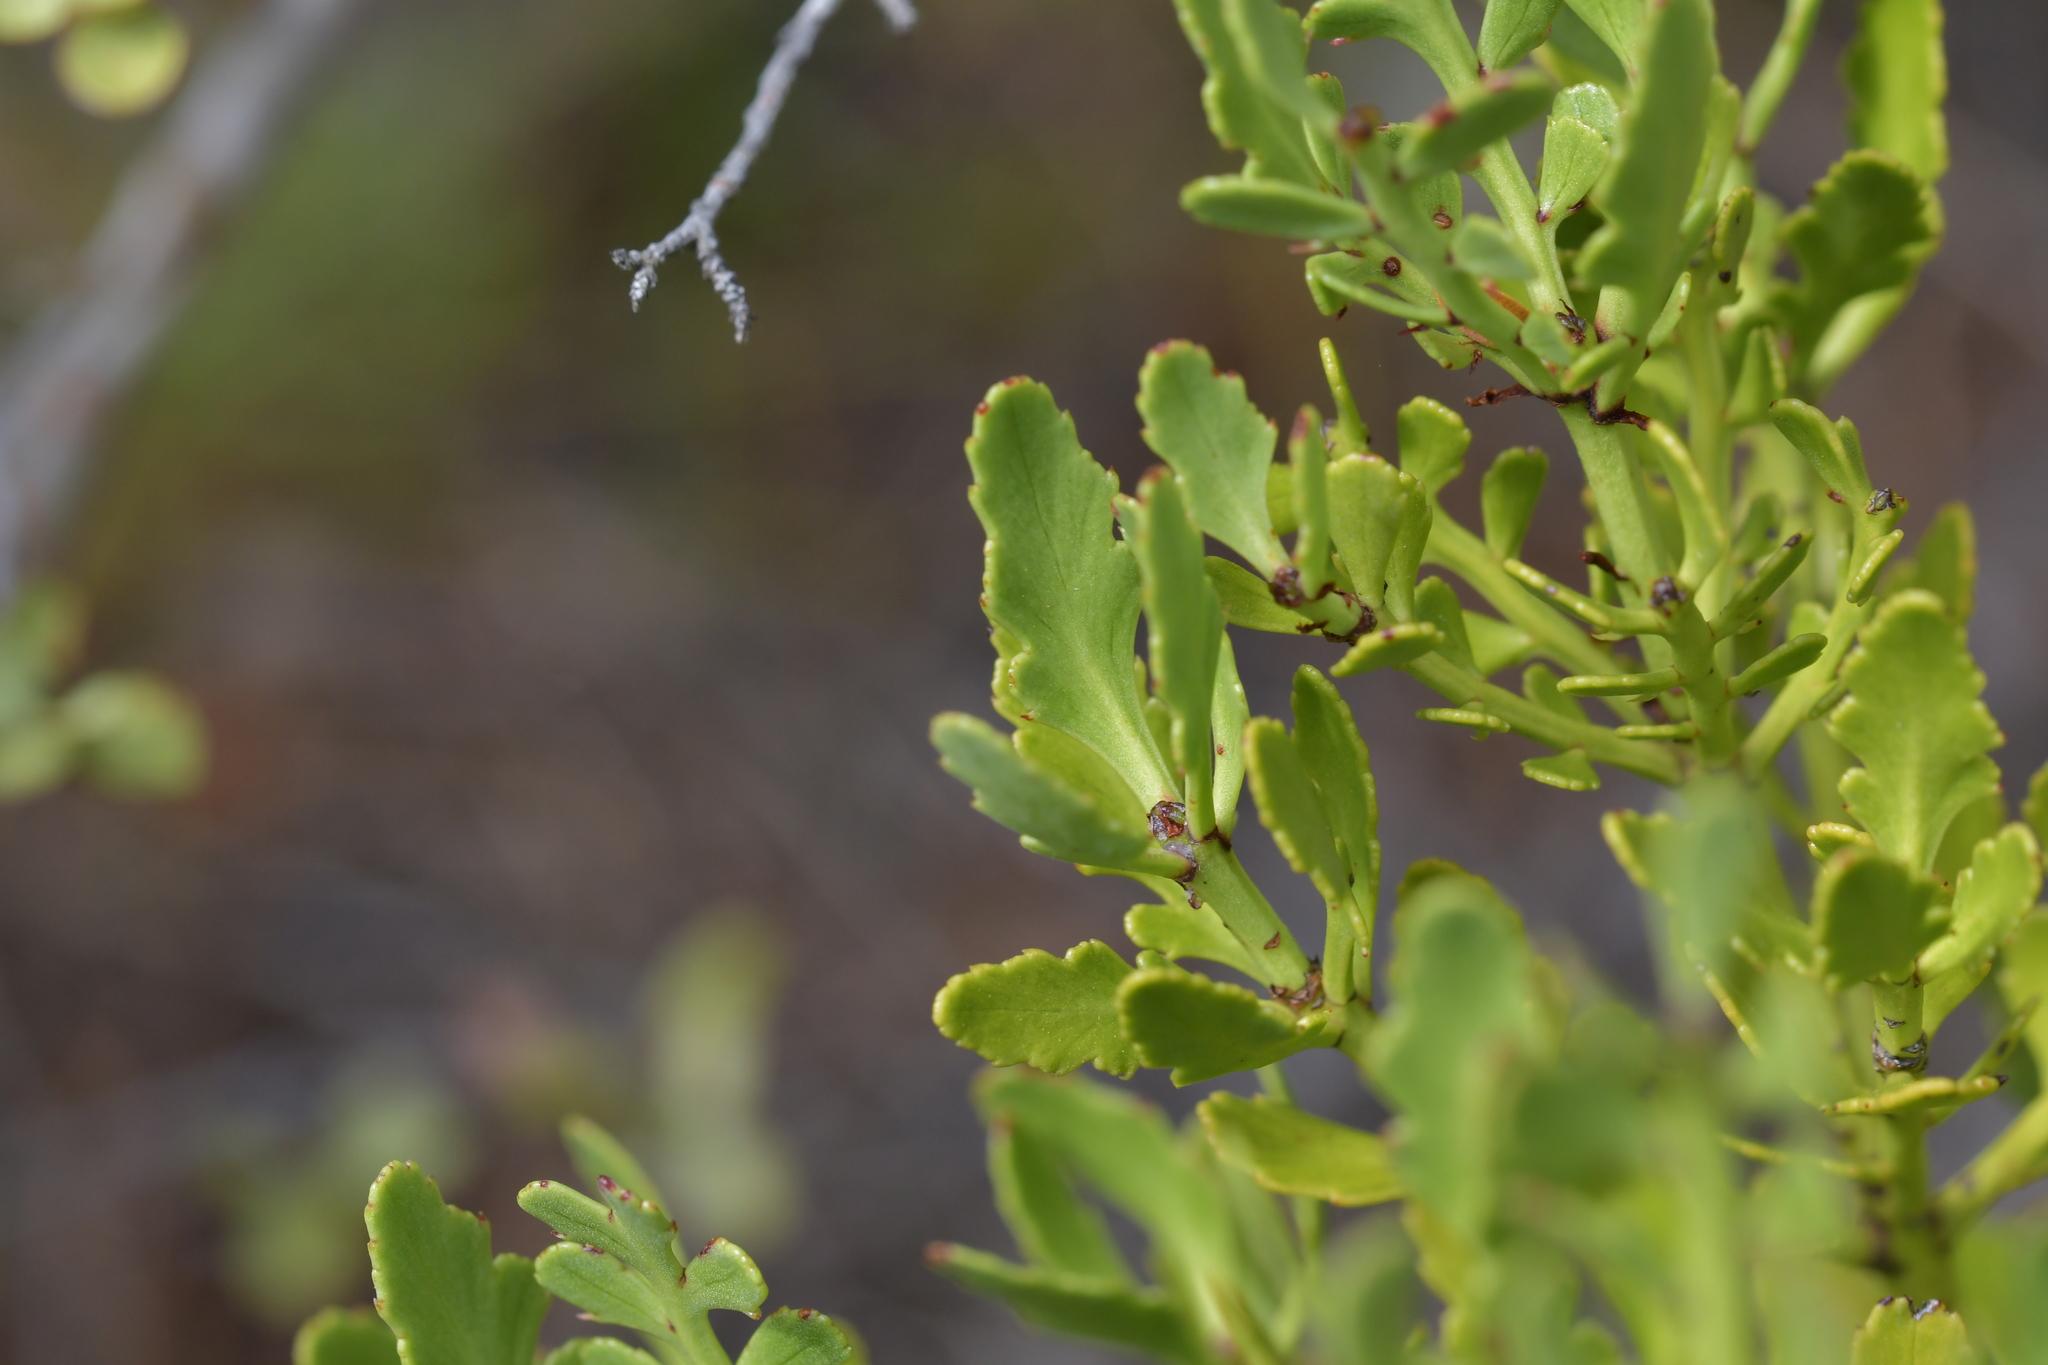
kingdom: Plantae
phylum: Tracheophyta
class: Pinopsida
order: Pinales
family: Phyllocladaceae
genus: Phyllocladus
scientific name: Phyllocladus trichomanoides
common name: Celery pine
